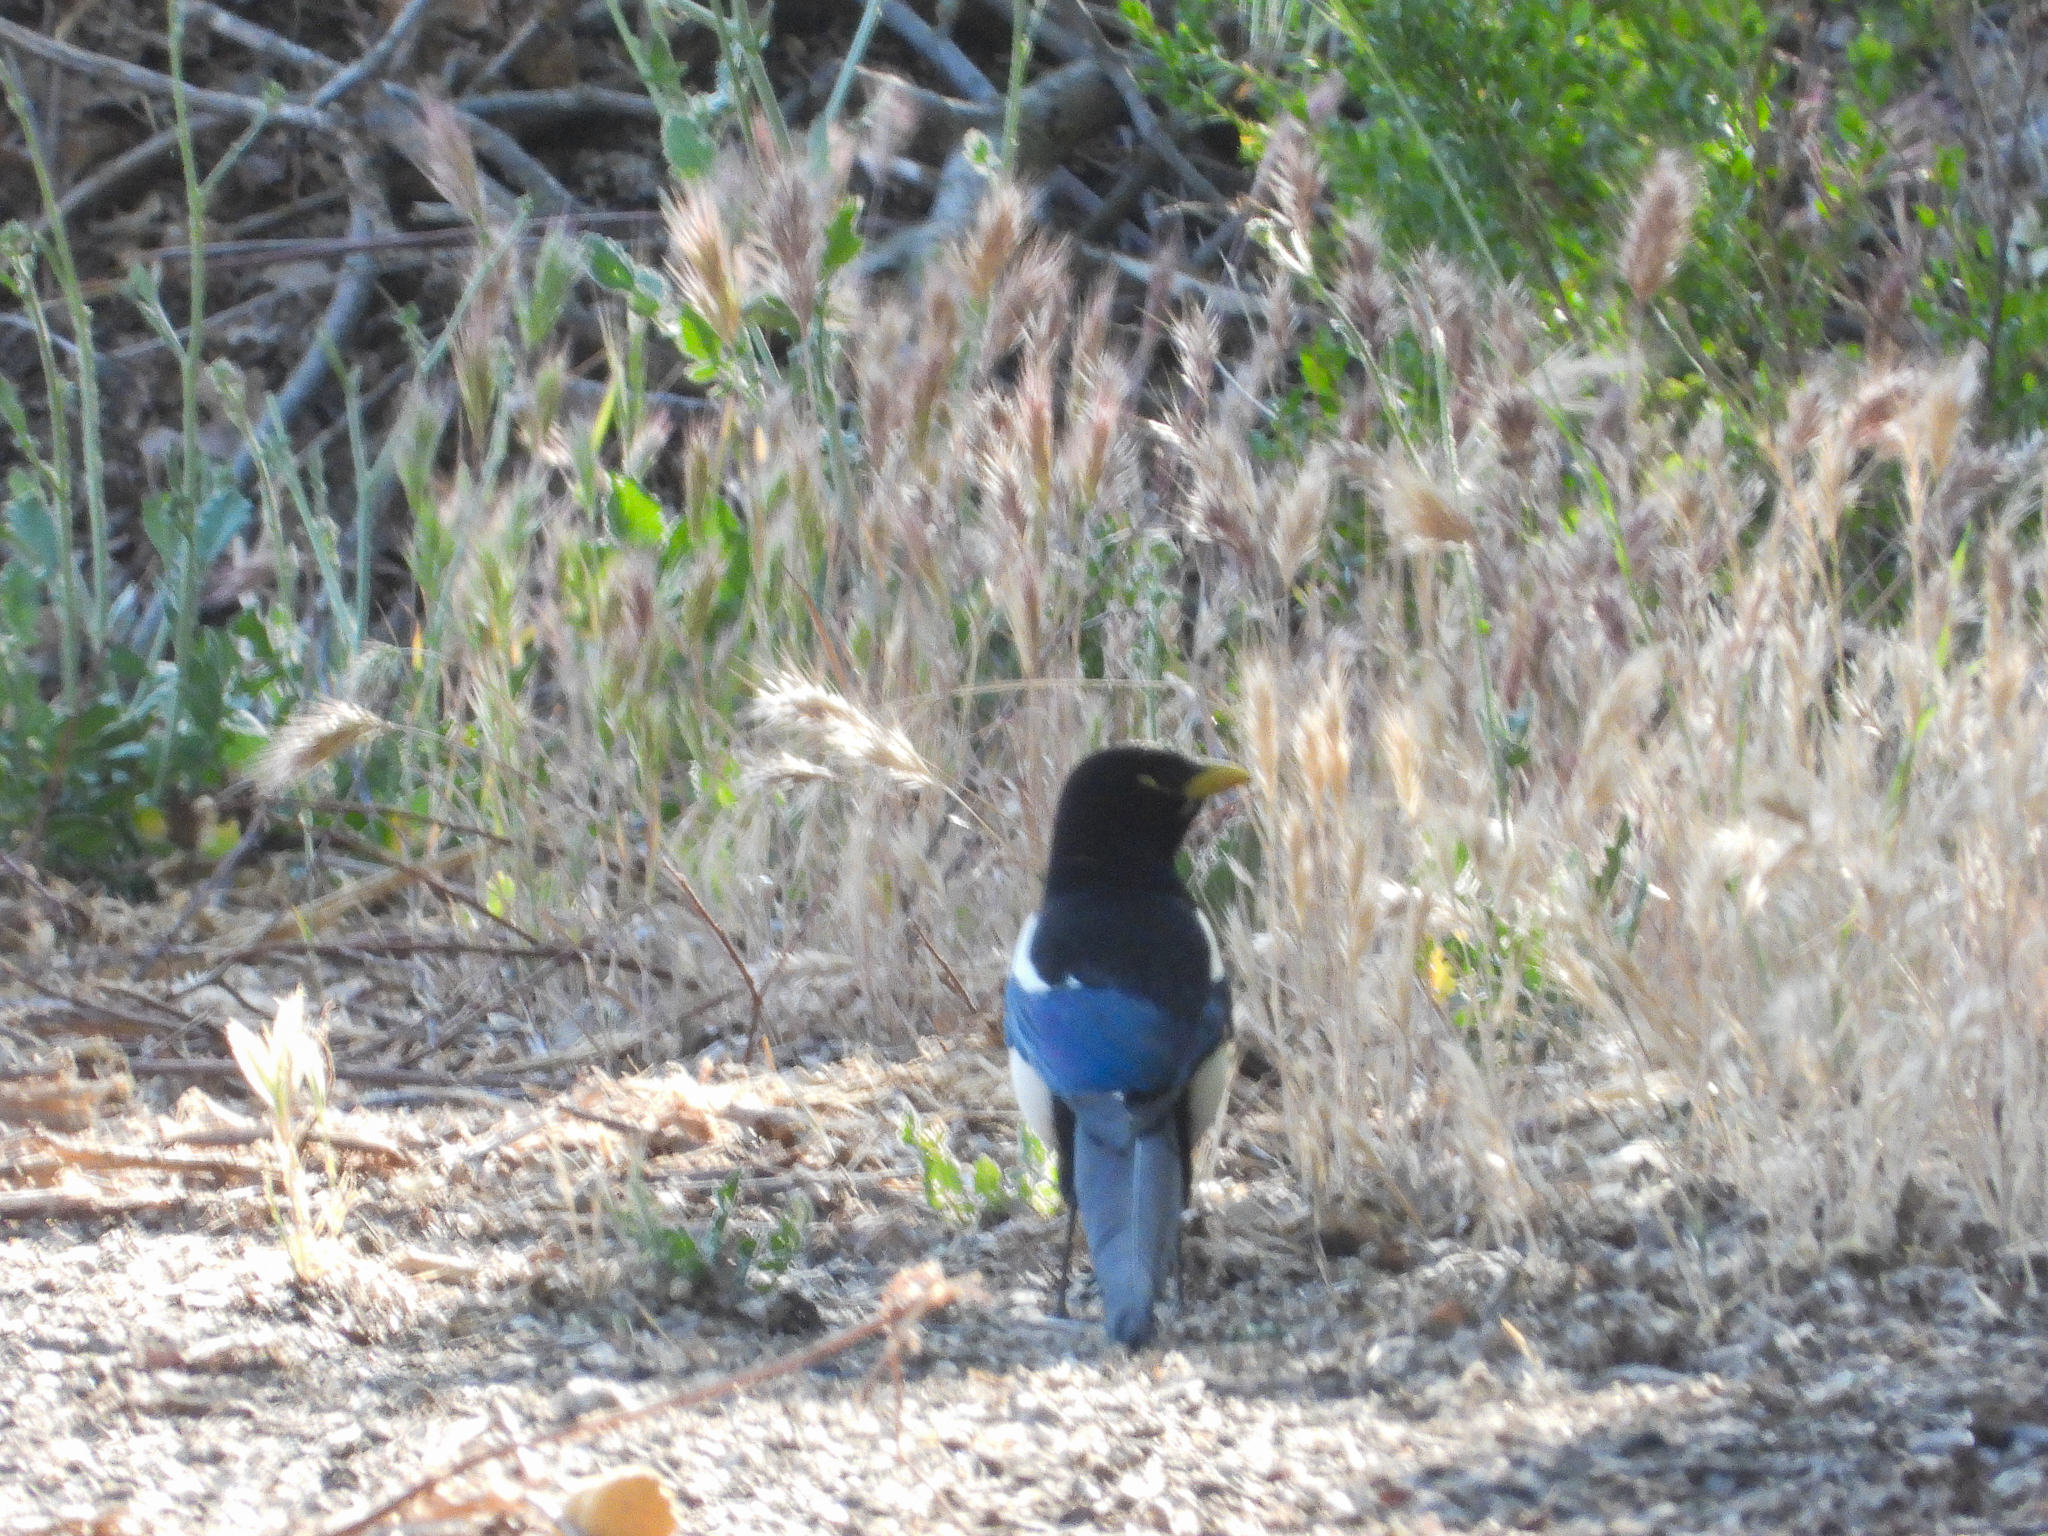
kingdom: Animalia
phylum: Chordata
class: Aves
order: Passeriformes
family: Corvidae
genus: Pica
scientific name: Pica nuttalli
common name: Yellow-billed magpie
